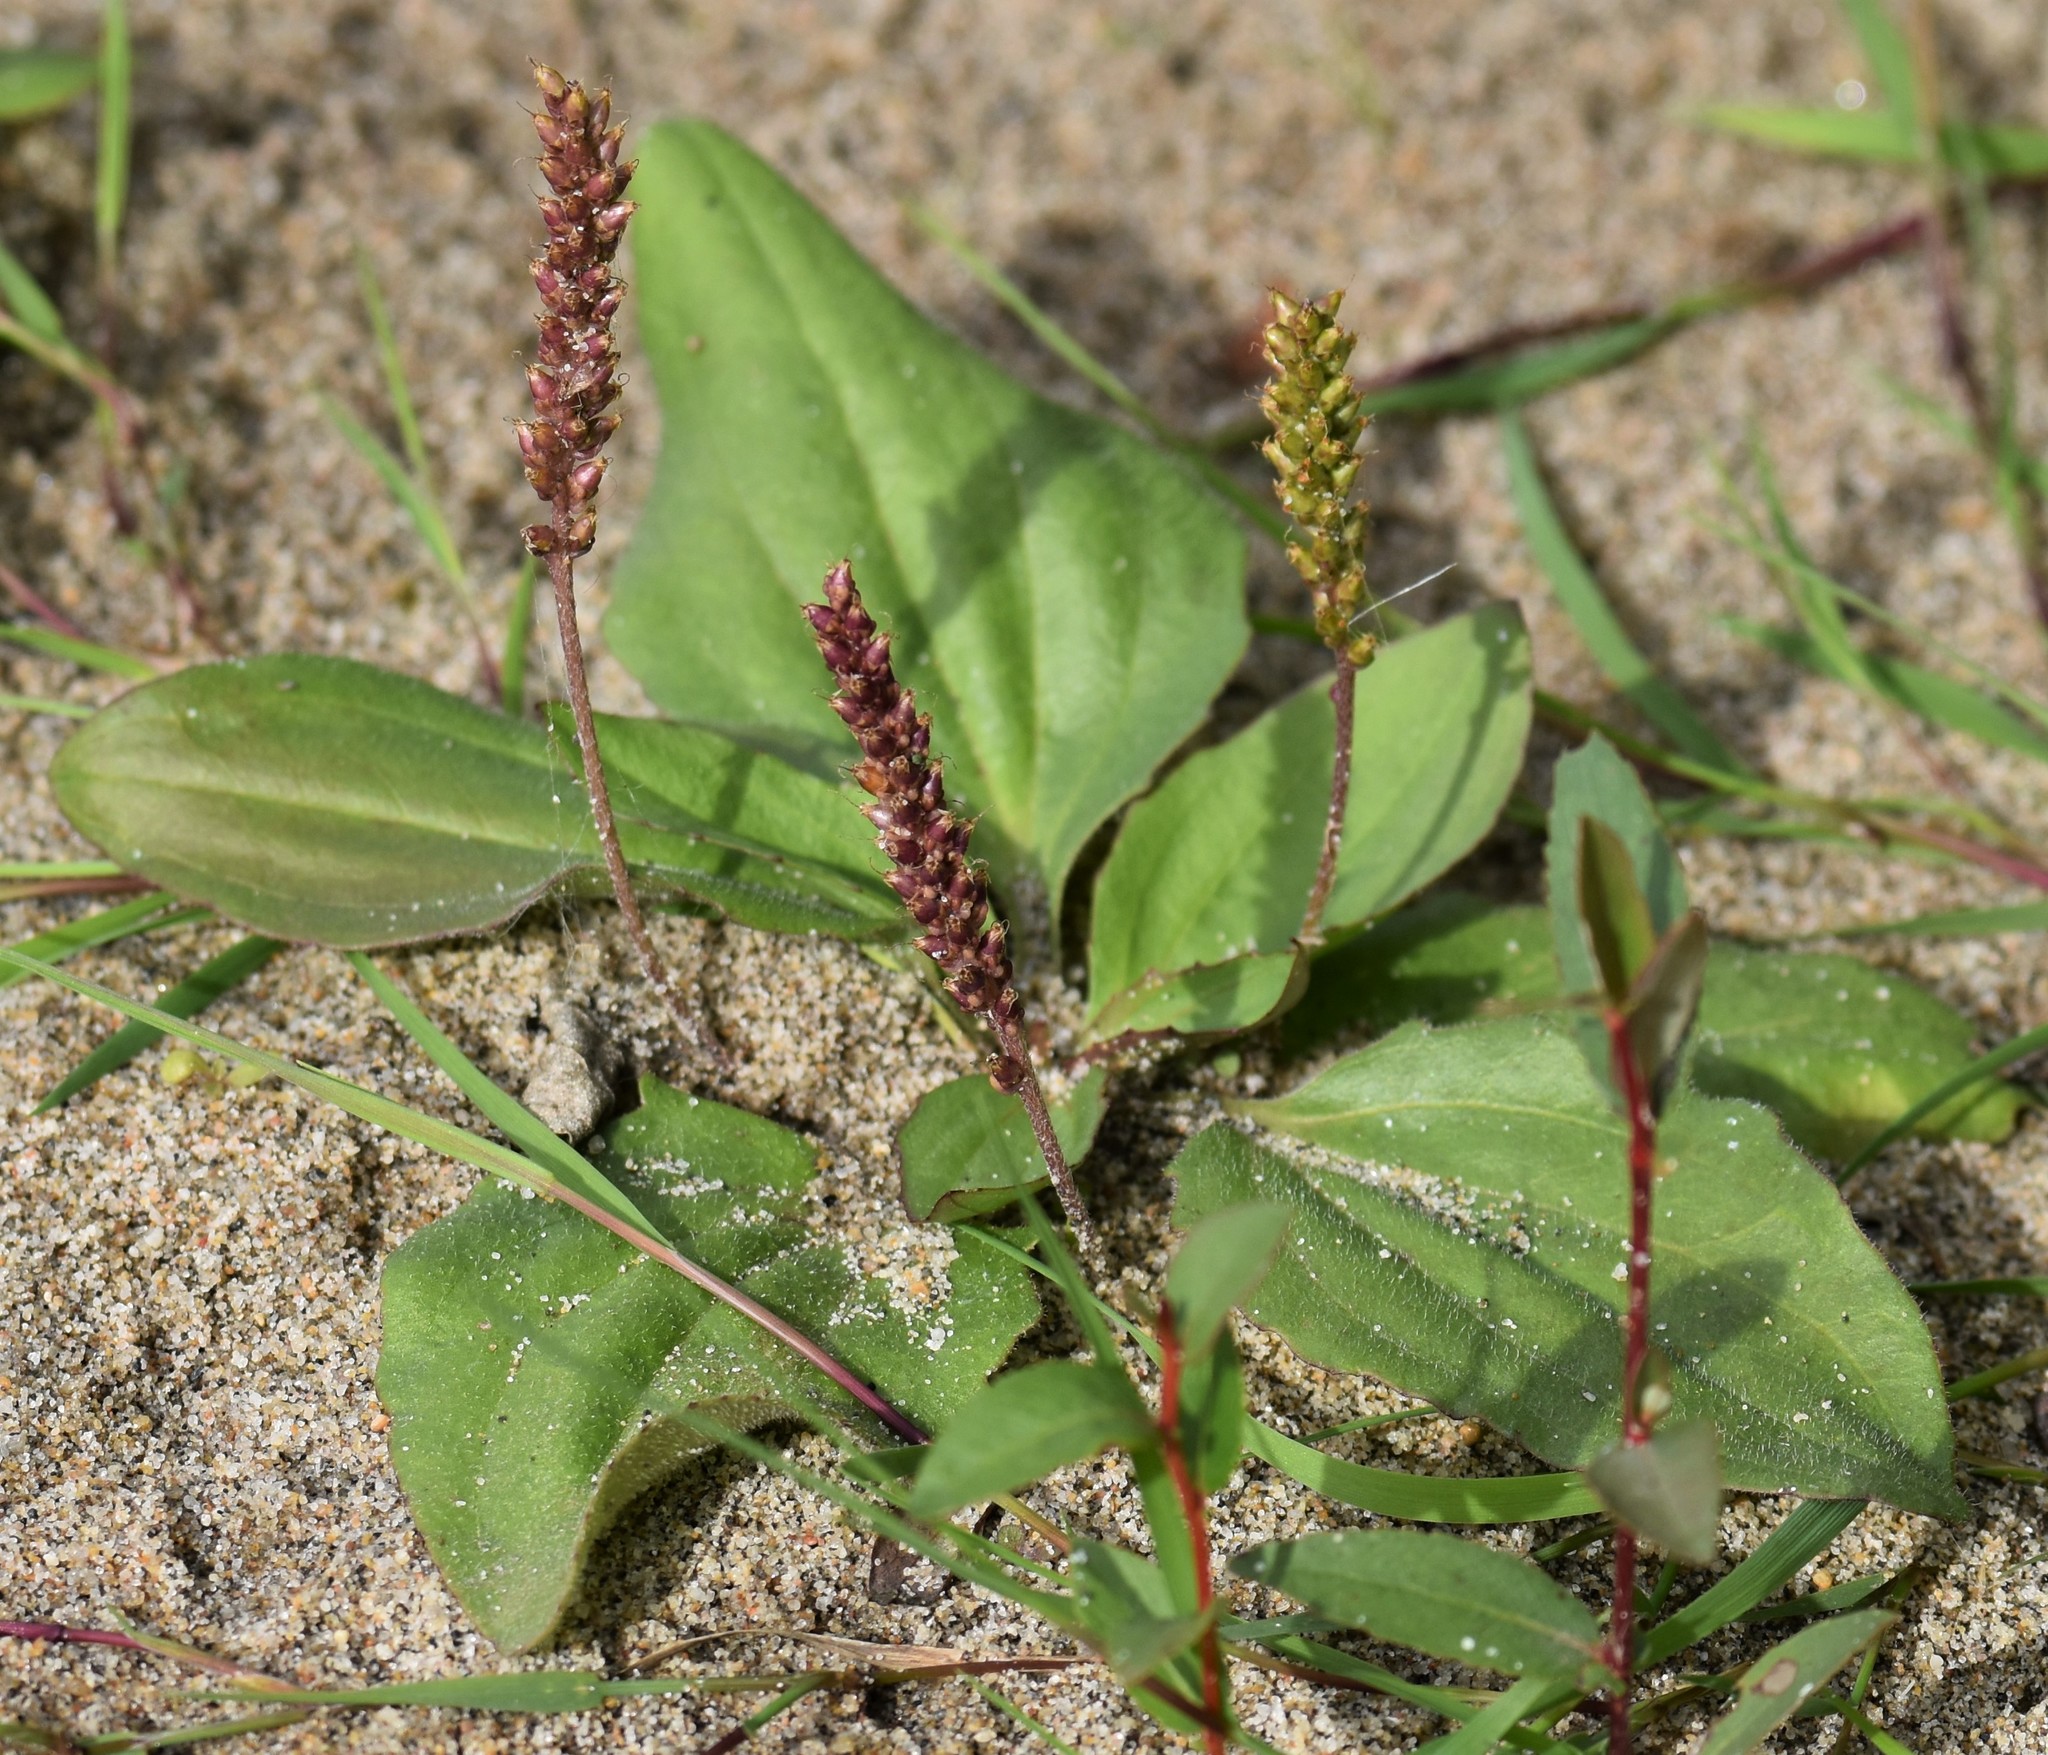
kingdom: Plantae
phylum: Tracheophyta
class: Magnoliopsida
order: Lamiales
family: Plantaginaceae
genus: Plantago
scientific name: Plantago media
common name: Hoary plantain
